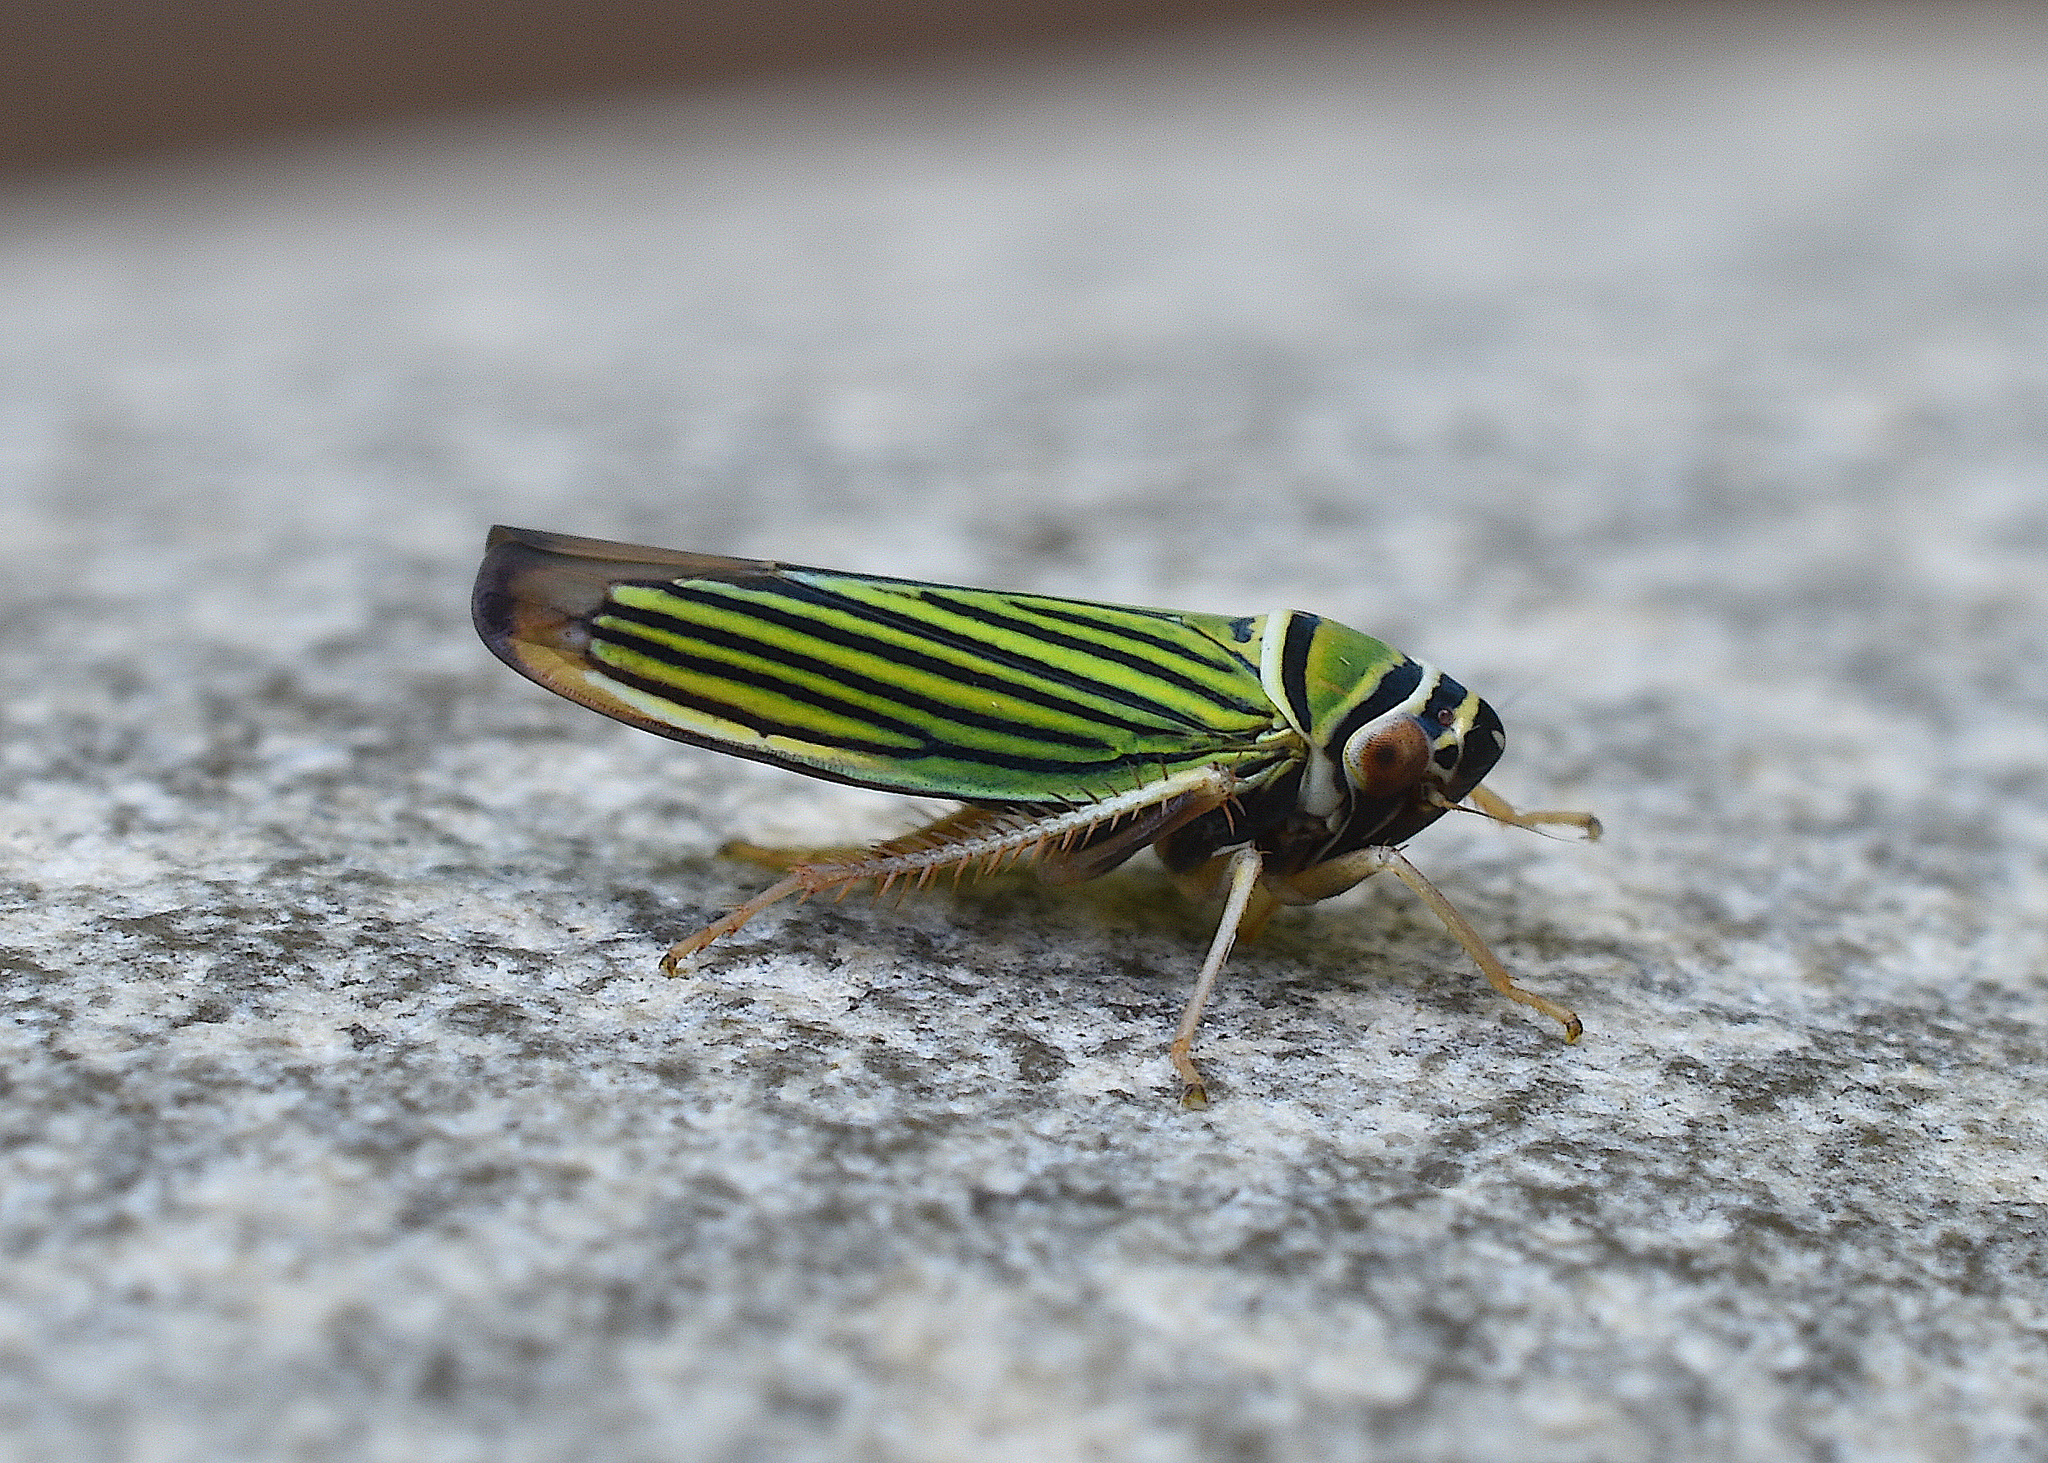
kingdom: Animalia
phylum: Arthropoda
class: Insecta
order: Hemiptera
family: Cicadellidae
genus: Tylozygus
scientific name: Tylozygus bifidus
